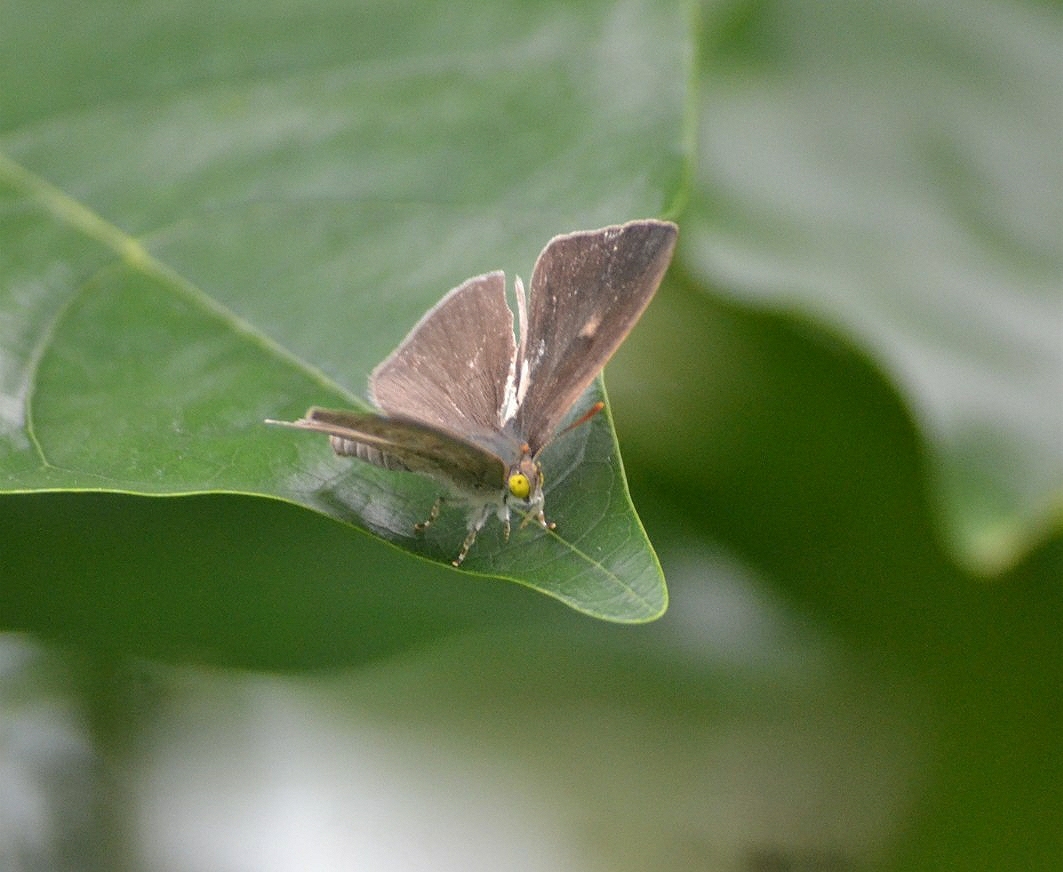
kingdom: Animalia
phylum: Arthropoda
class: Insecta
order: Lepidoptera
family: Lycaenidae
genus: Spalgis
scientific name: Spalgis epius
